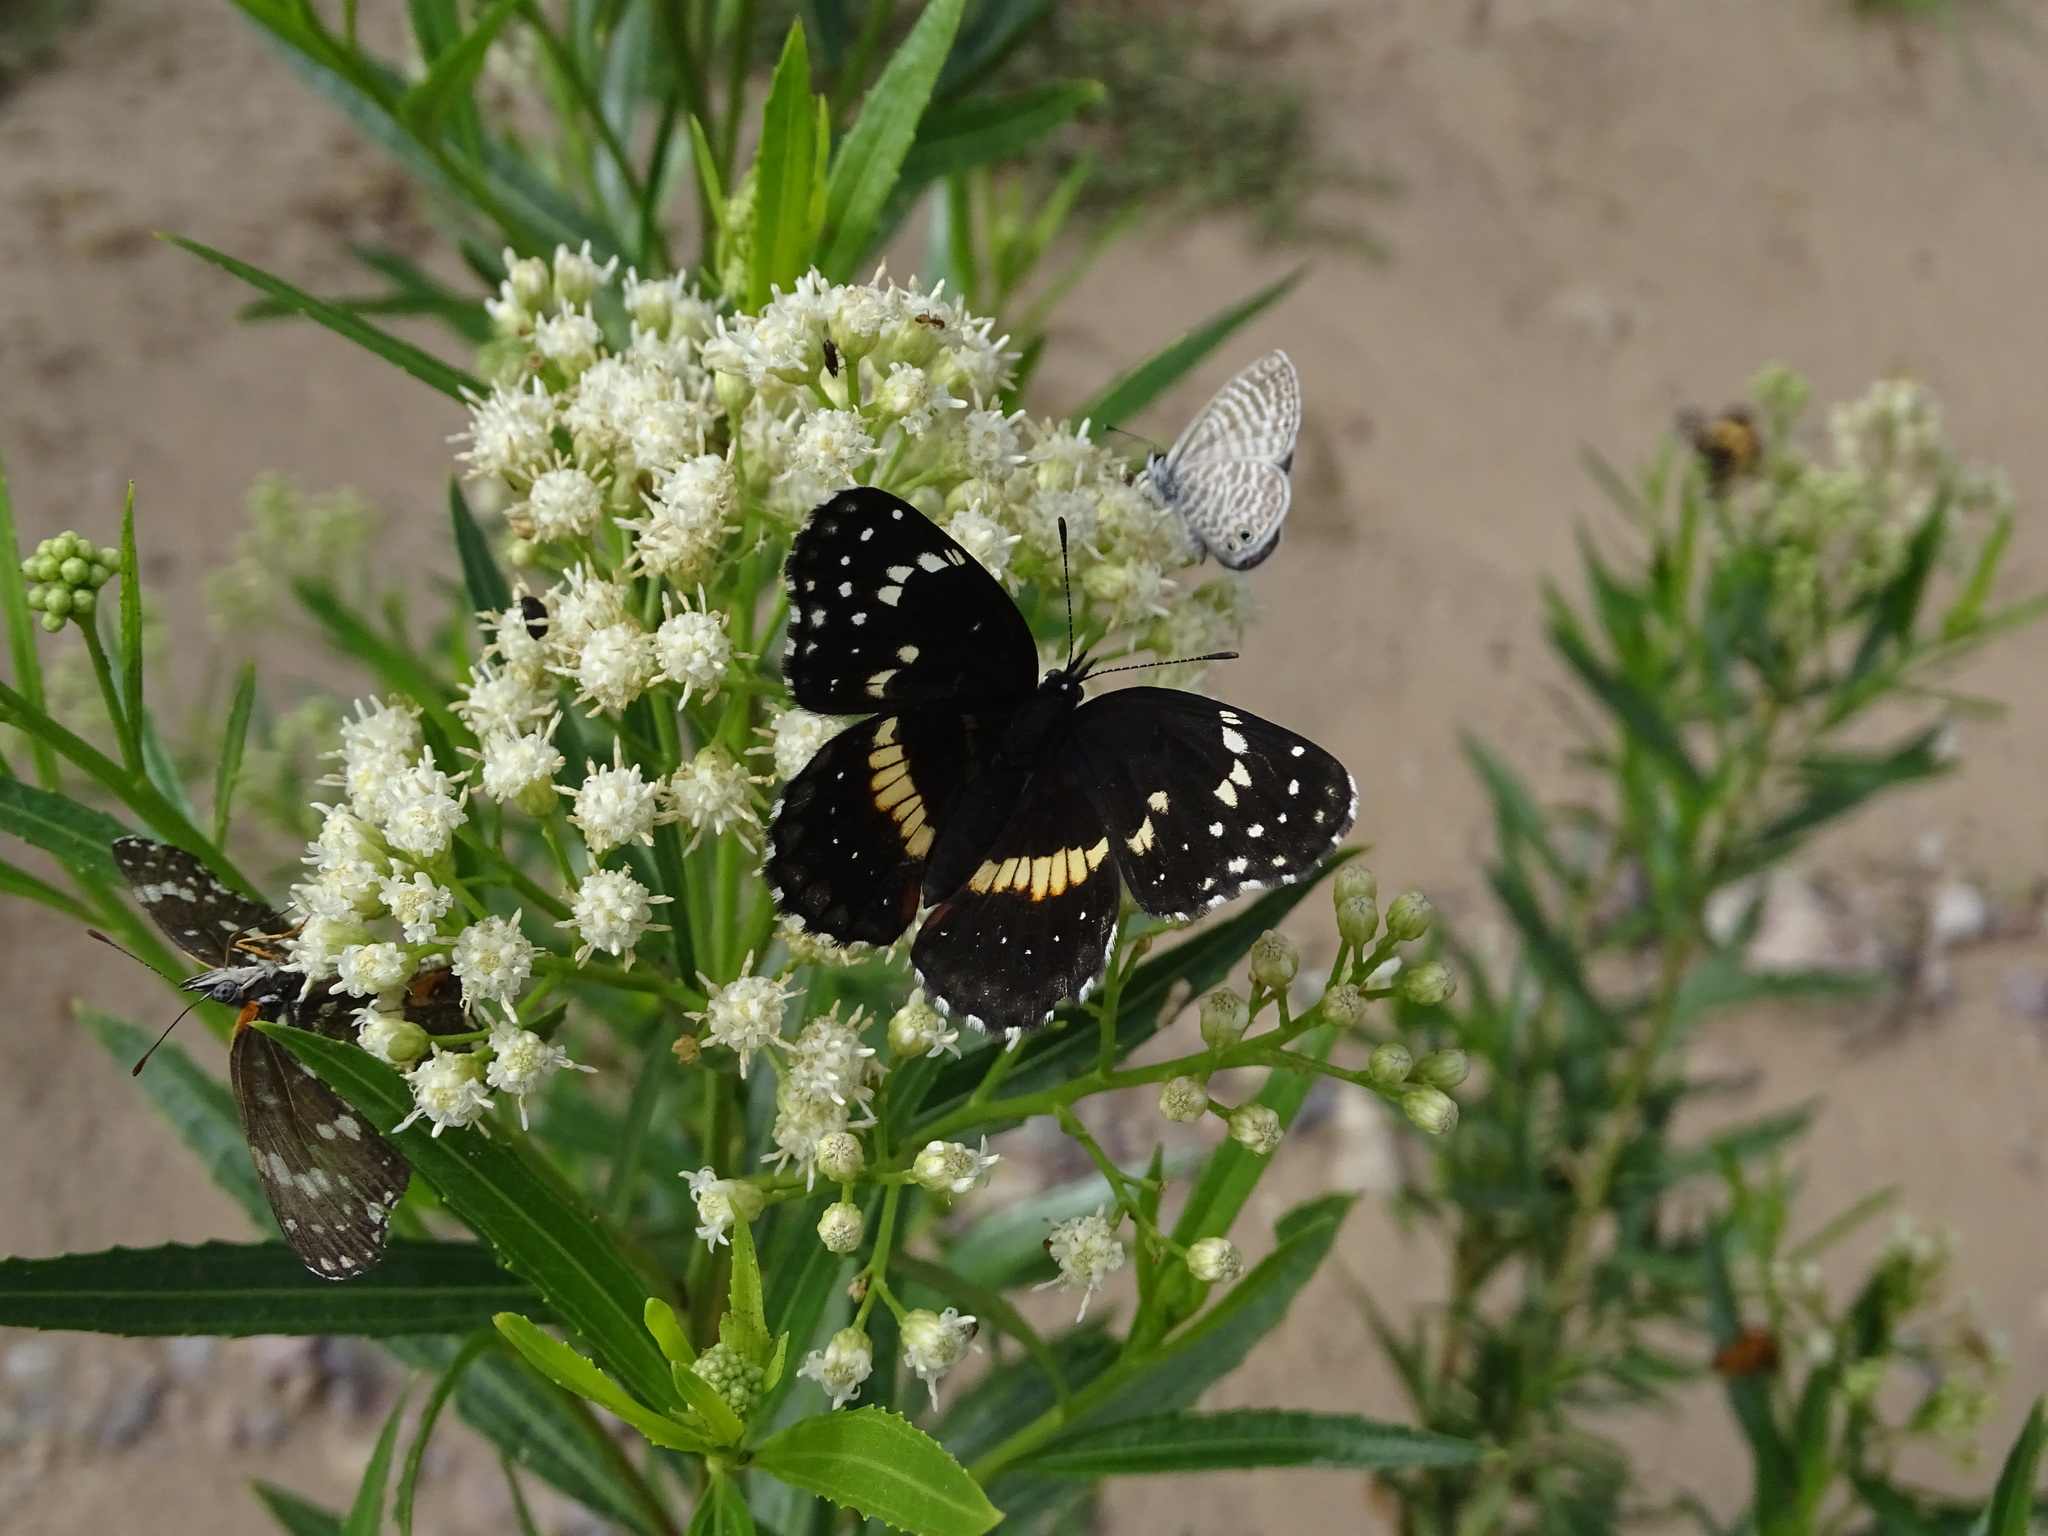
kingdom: Animalia
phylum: Arthropoda
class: Insecta
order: Lepidoptera
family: Nymphalidae
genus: Chlosyne
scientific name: Chlosyne lacinia
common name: Bordered patch
